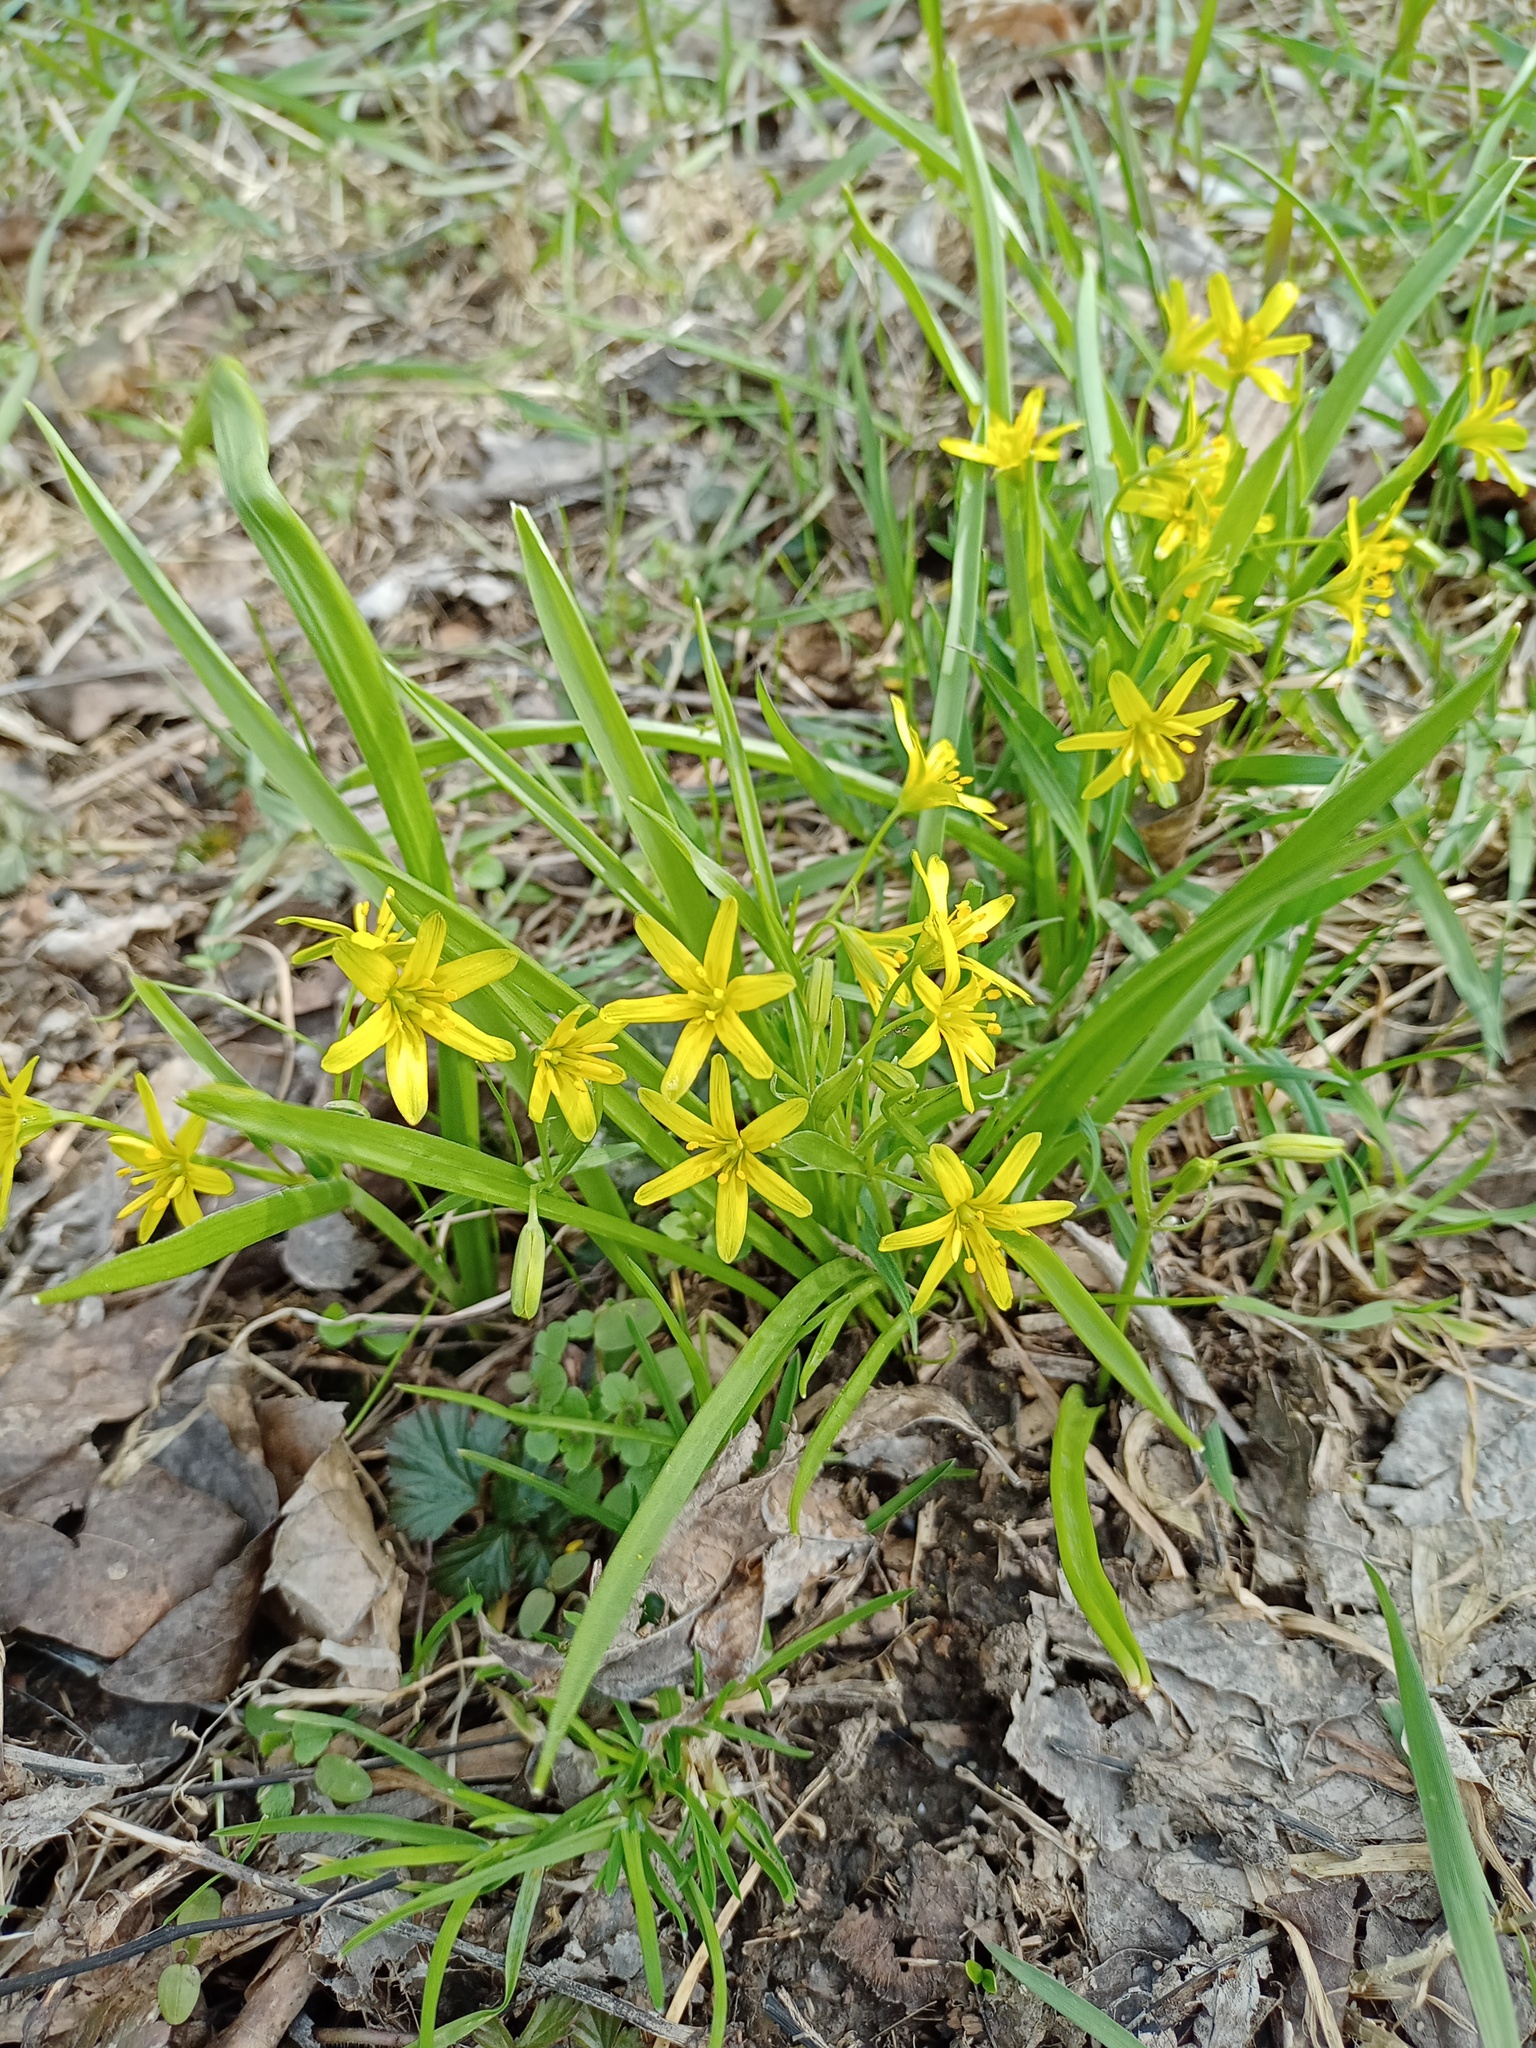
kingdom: Plantae
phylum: Tracheophyta
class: Liliopsida
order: Liliales
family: Liliaceae
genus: Gagea
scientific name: Gagea lutea
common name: Yellow star-of-bethlehem
